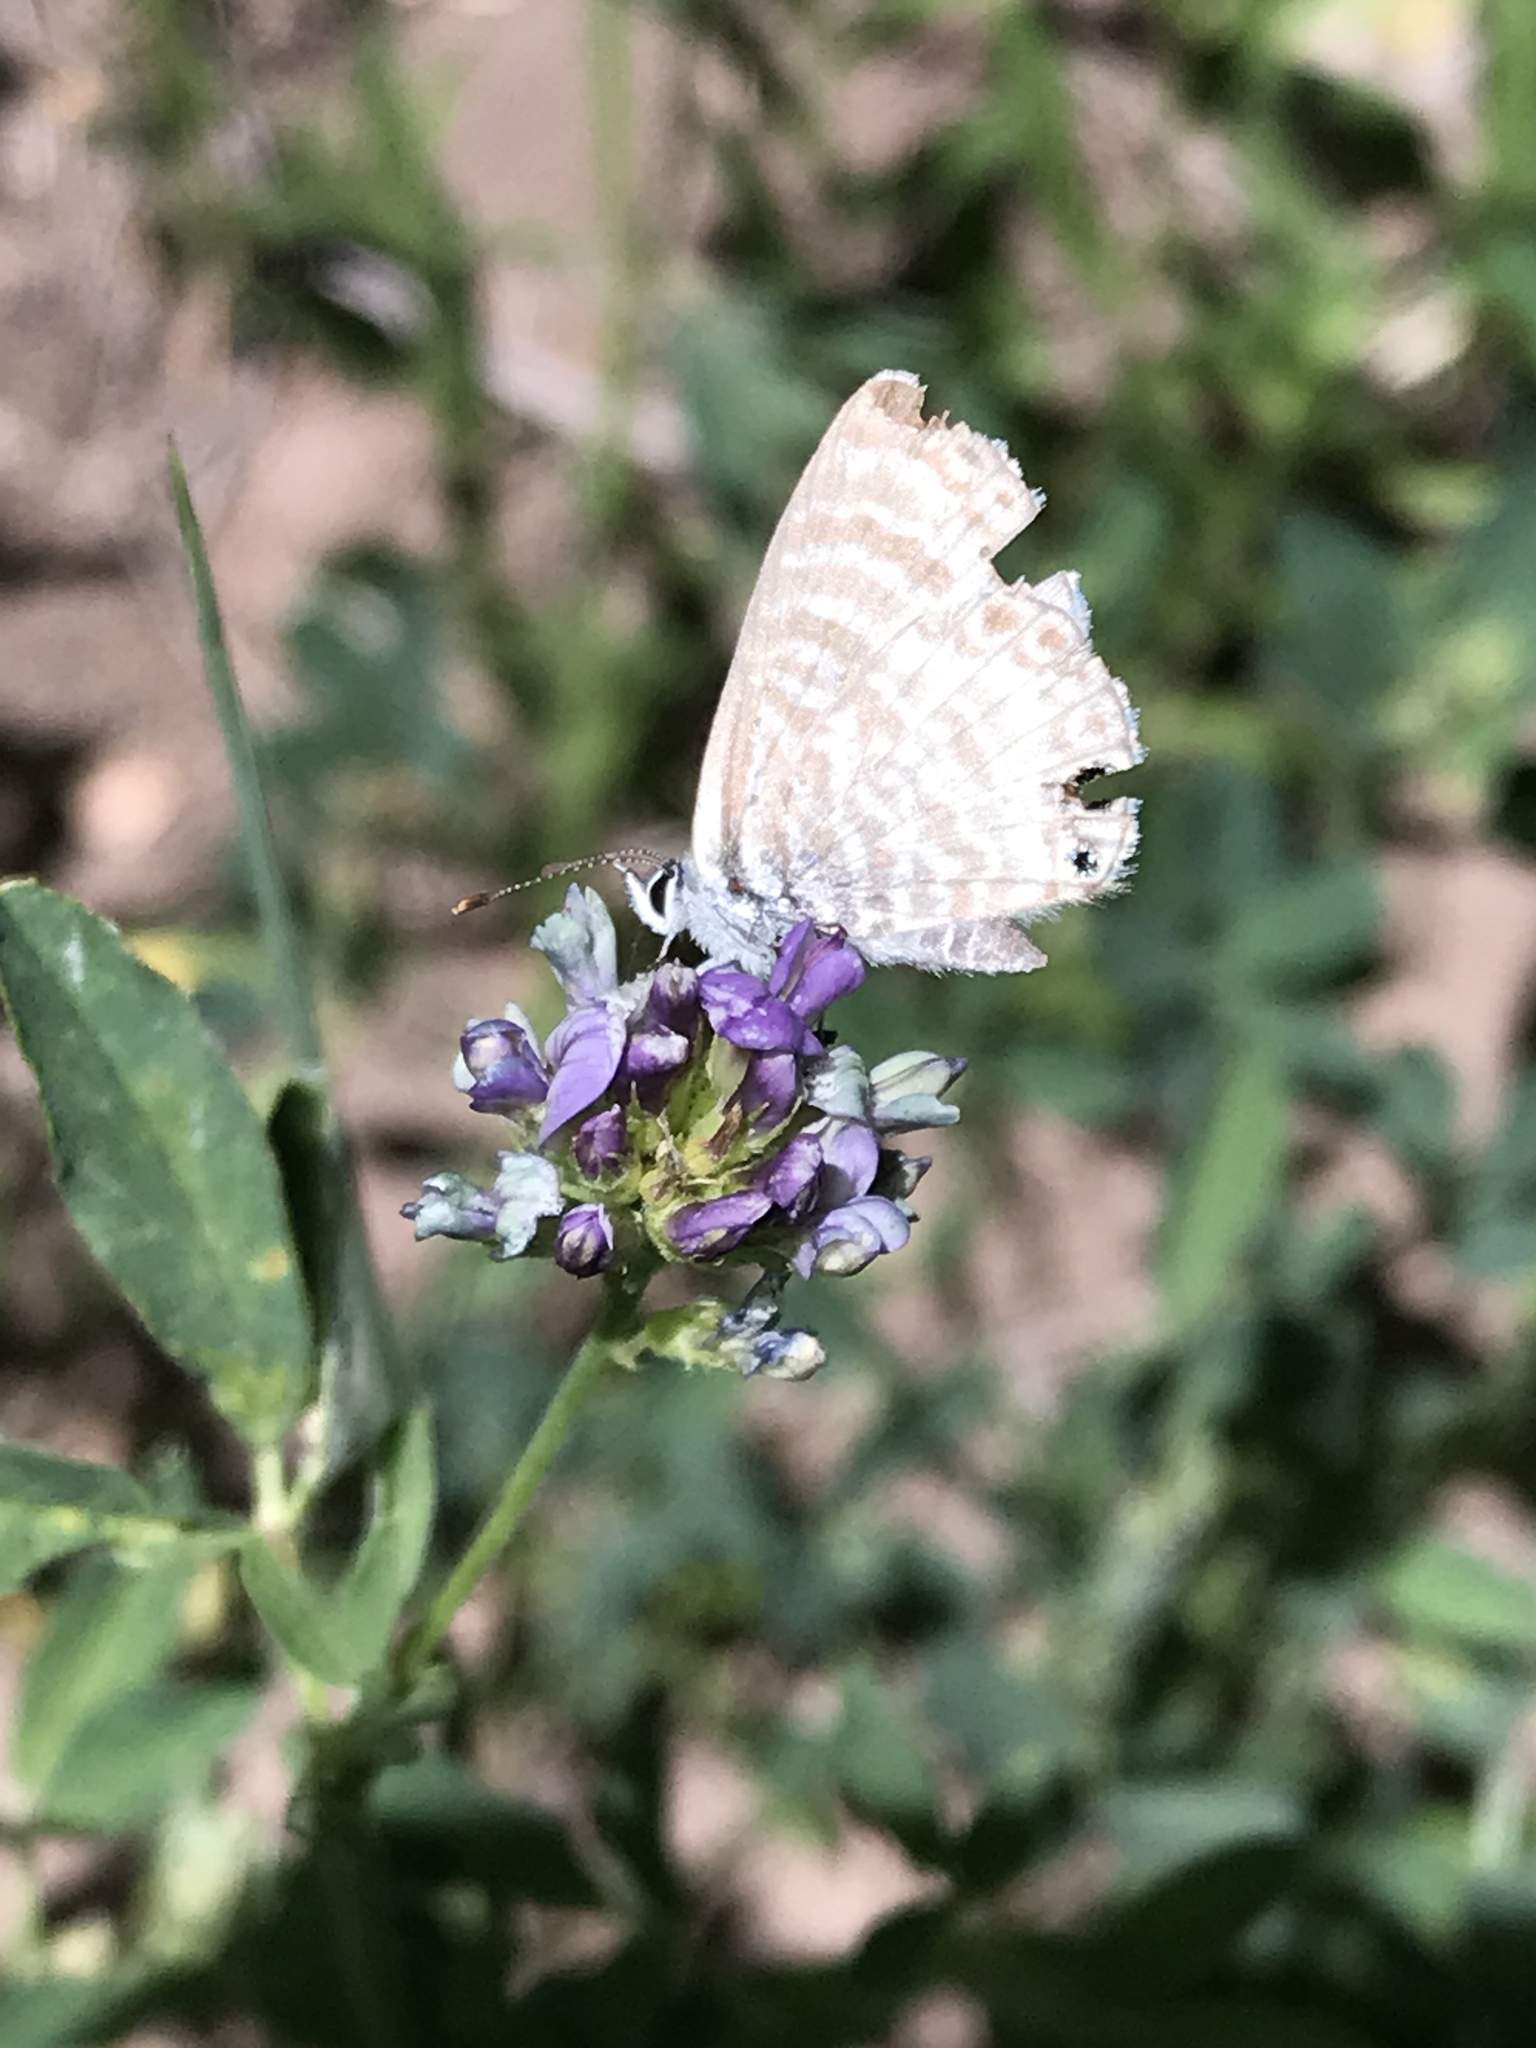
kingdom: Animalia
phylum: Arthropoda
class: Insecta
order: Lepidoptera
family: Lycaenidae
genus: Leptotes
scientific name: Leptotes marina
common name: Marine blue
